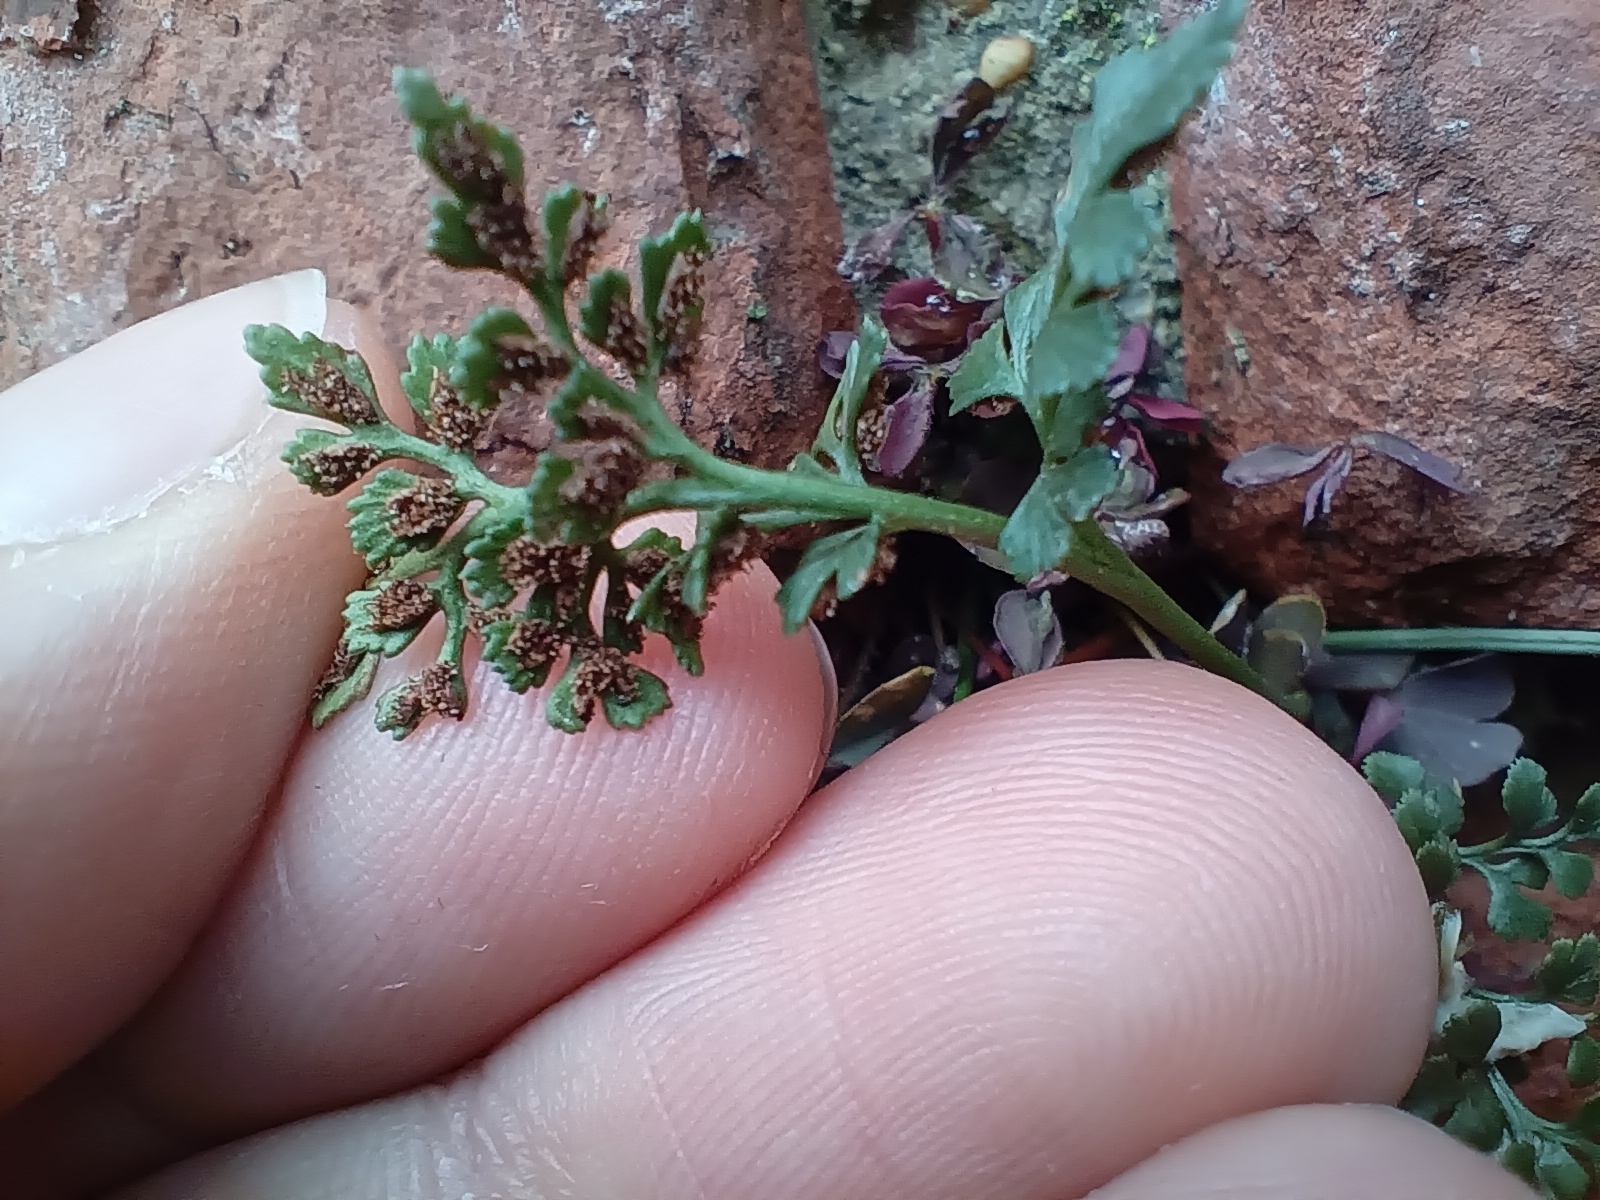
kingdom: Plantae
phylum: Tracheophyta
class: Polypodiopsida
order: Polypodiales
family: Aspleniaceae
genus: Asplenium
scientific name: Asplenium ruta-muraria
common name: Wall-rue
